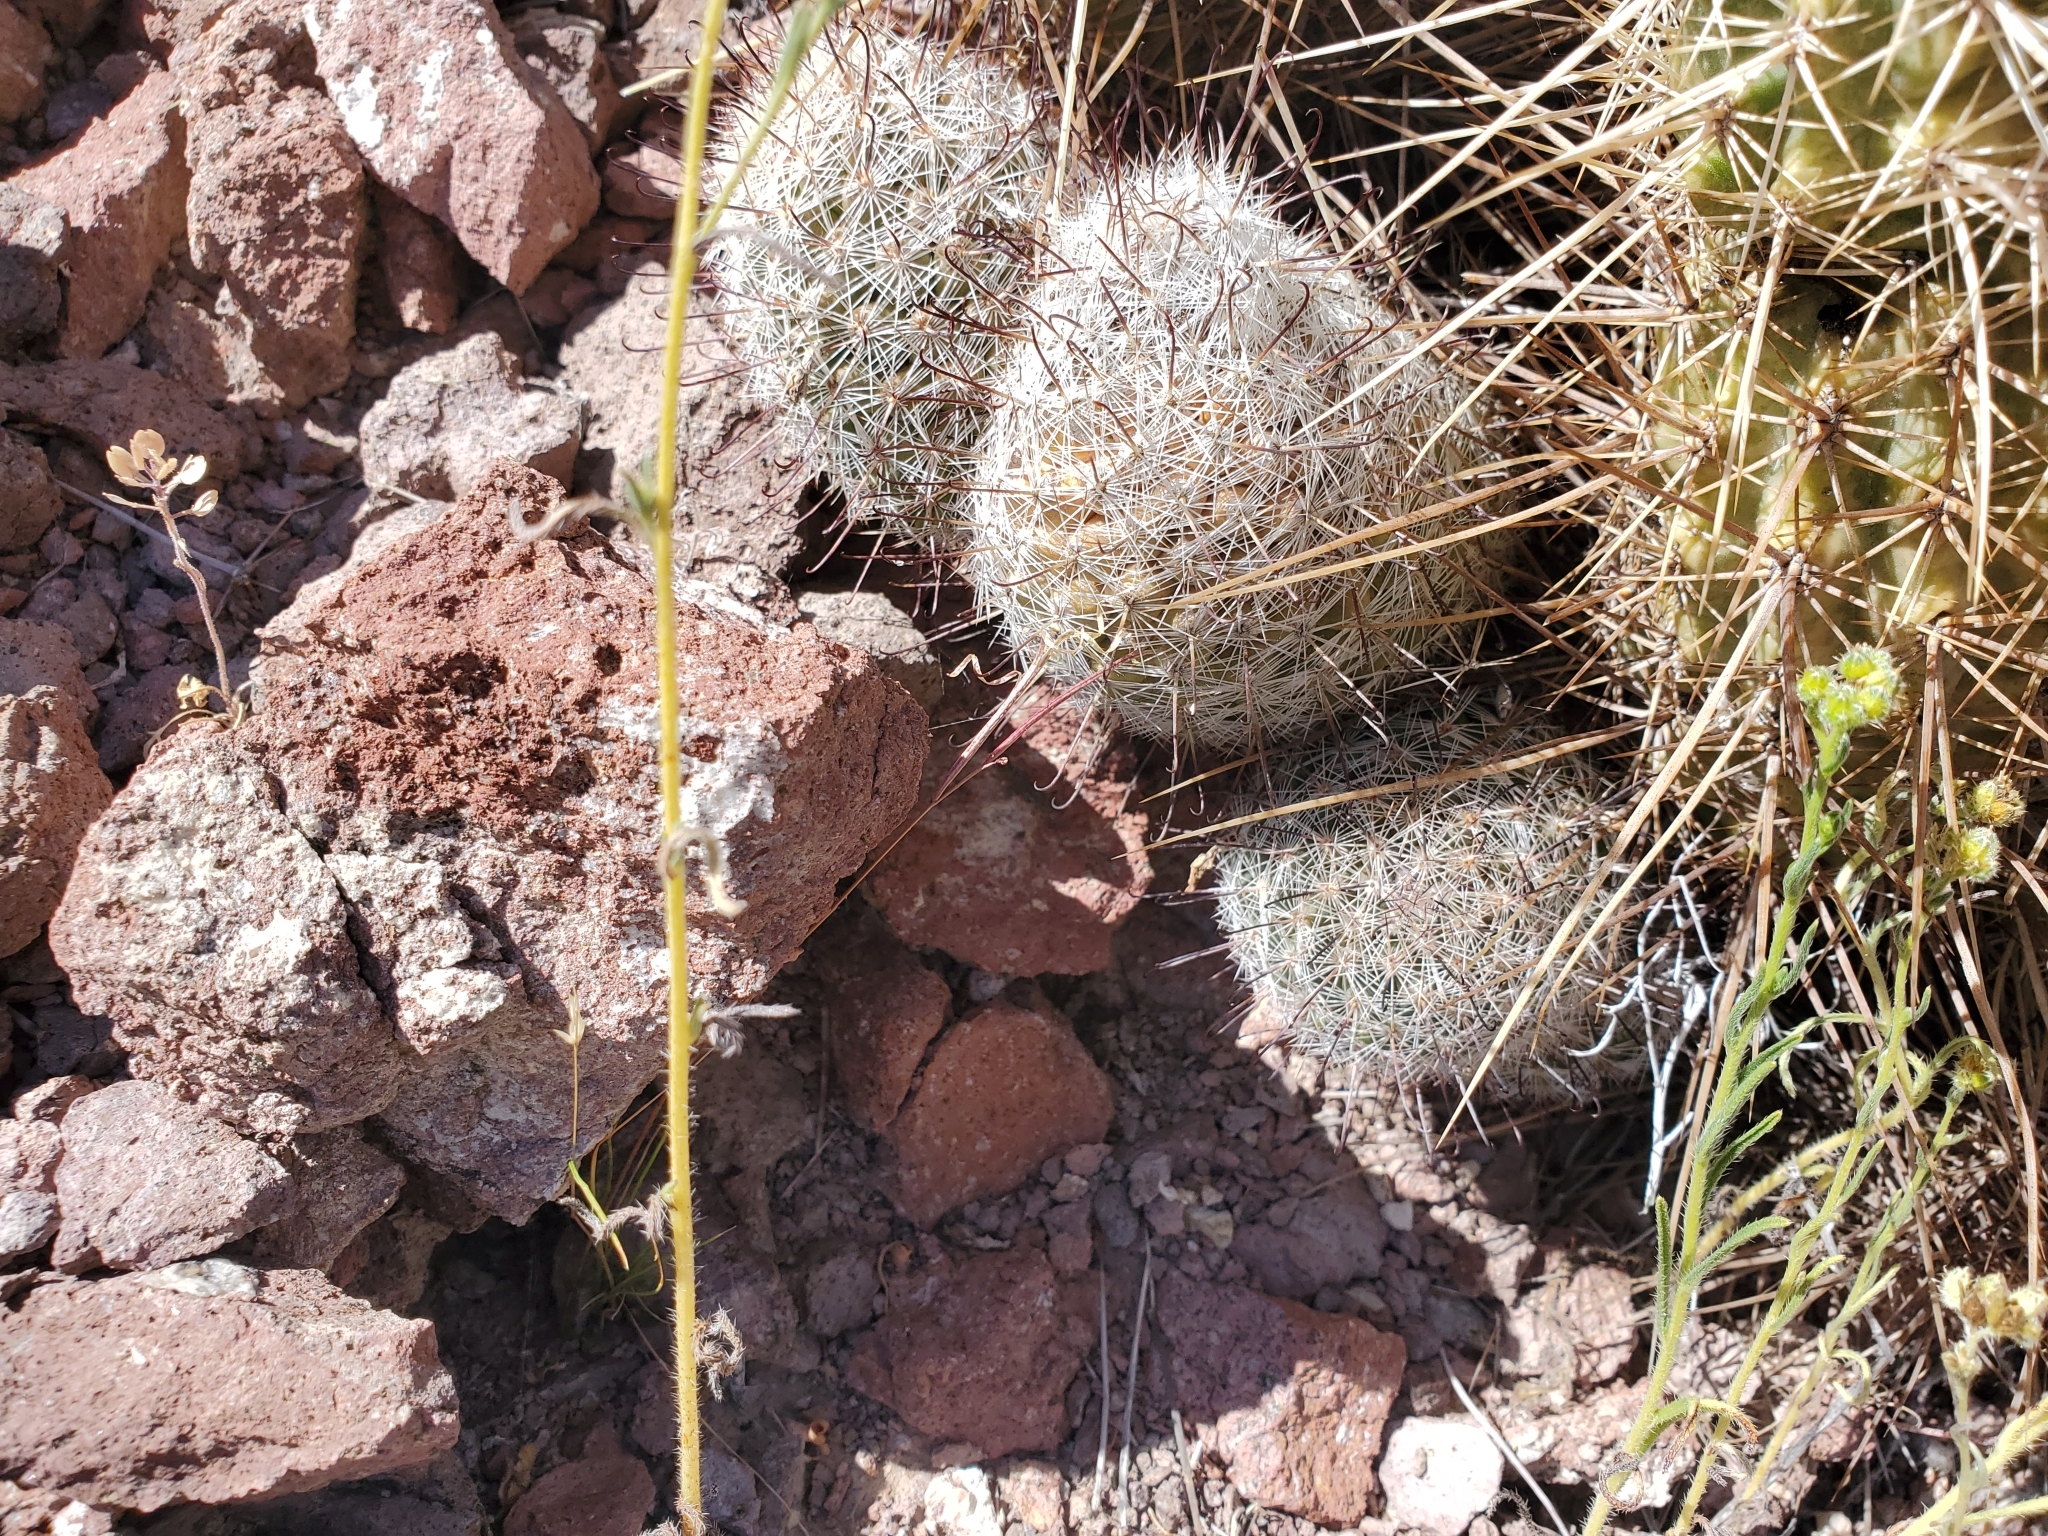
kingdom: Plantae
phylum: Tracheophyta
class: Magnoliopsida
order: Caryophyllales
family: Cactaceae
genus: Cochemiea
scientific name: Cochemiea grahamii
